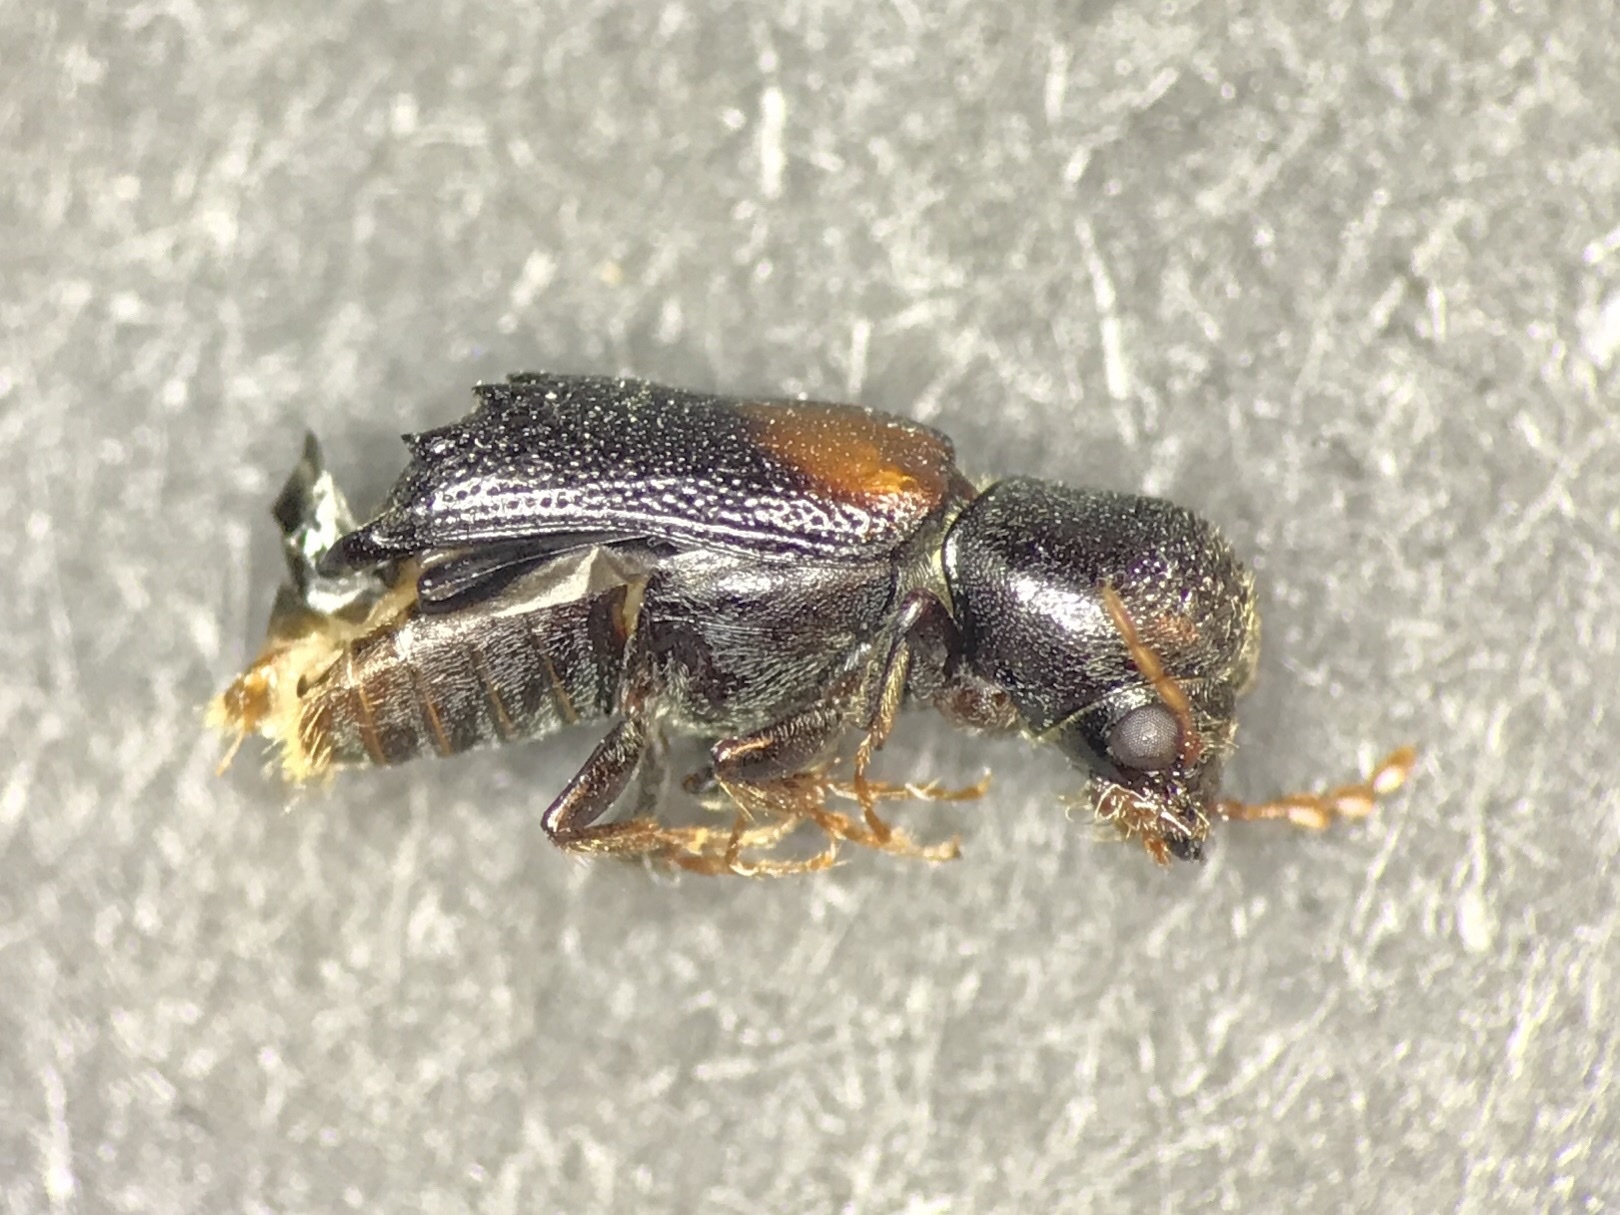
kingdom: Animalia
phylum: Arthropoda
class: Insecta
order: Coleoptera
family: Bostrichidae
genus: Xylobiops
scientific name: Xylobiops basilaris
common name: Red-shouldered bostrichid
